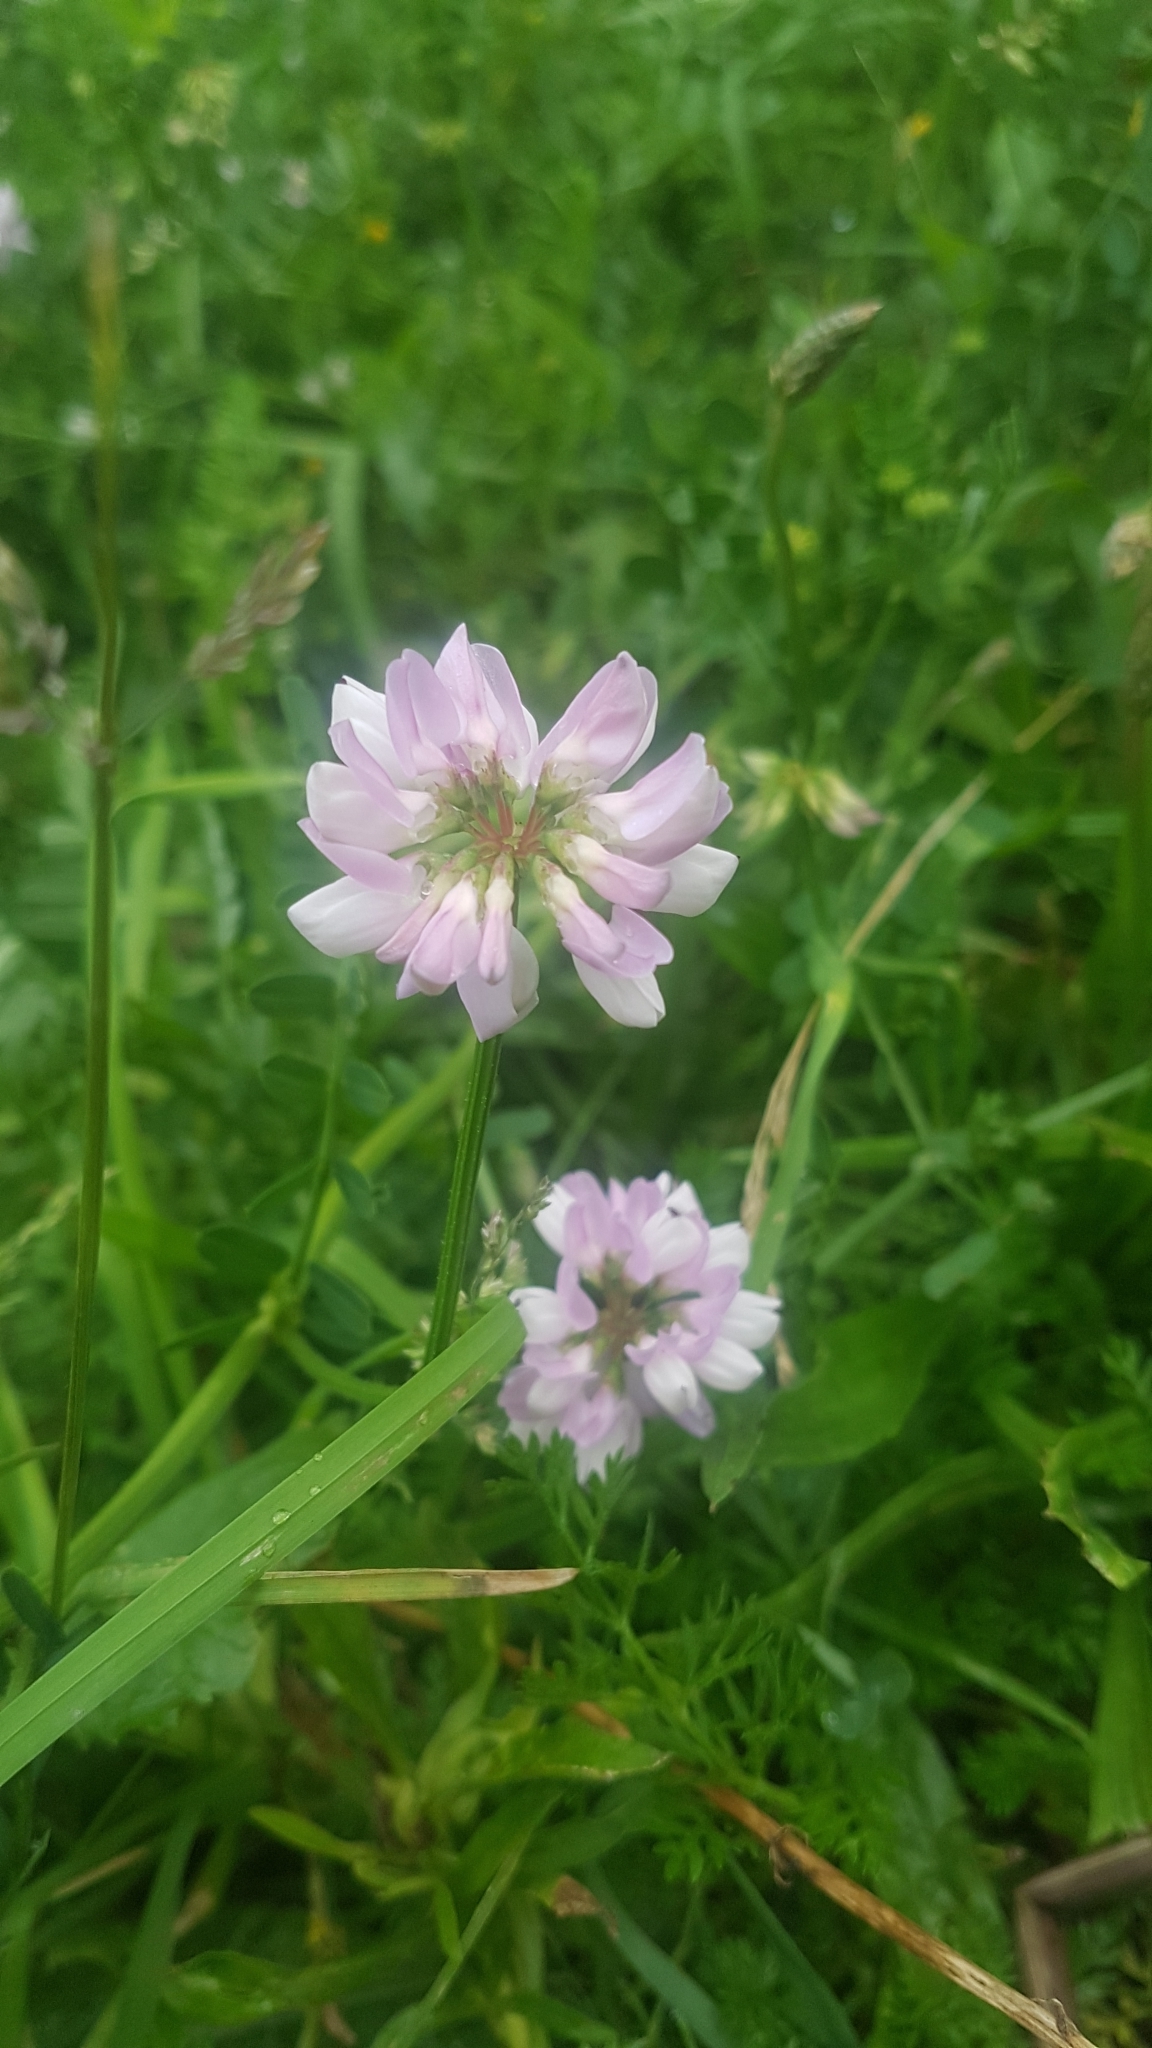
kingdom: Plantae
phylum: Tracheophyta
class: Magnoliopsida
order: Fabales
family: Fabaceae
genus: Coronilla
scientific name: Coronilla varia
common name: Crownvetch
